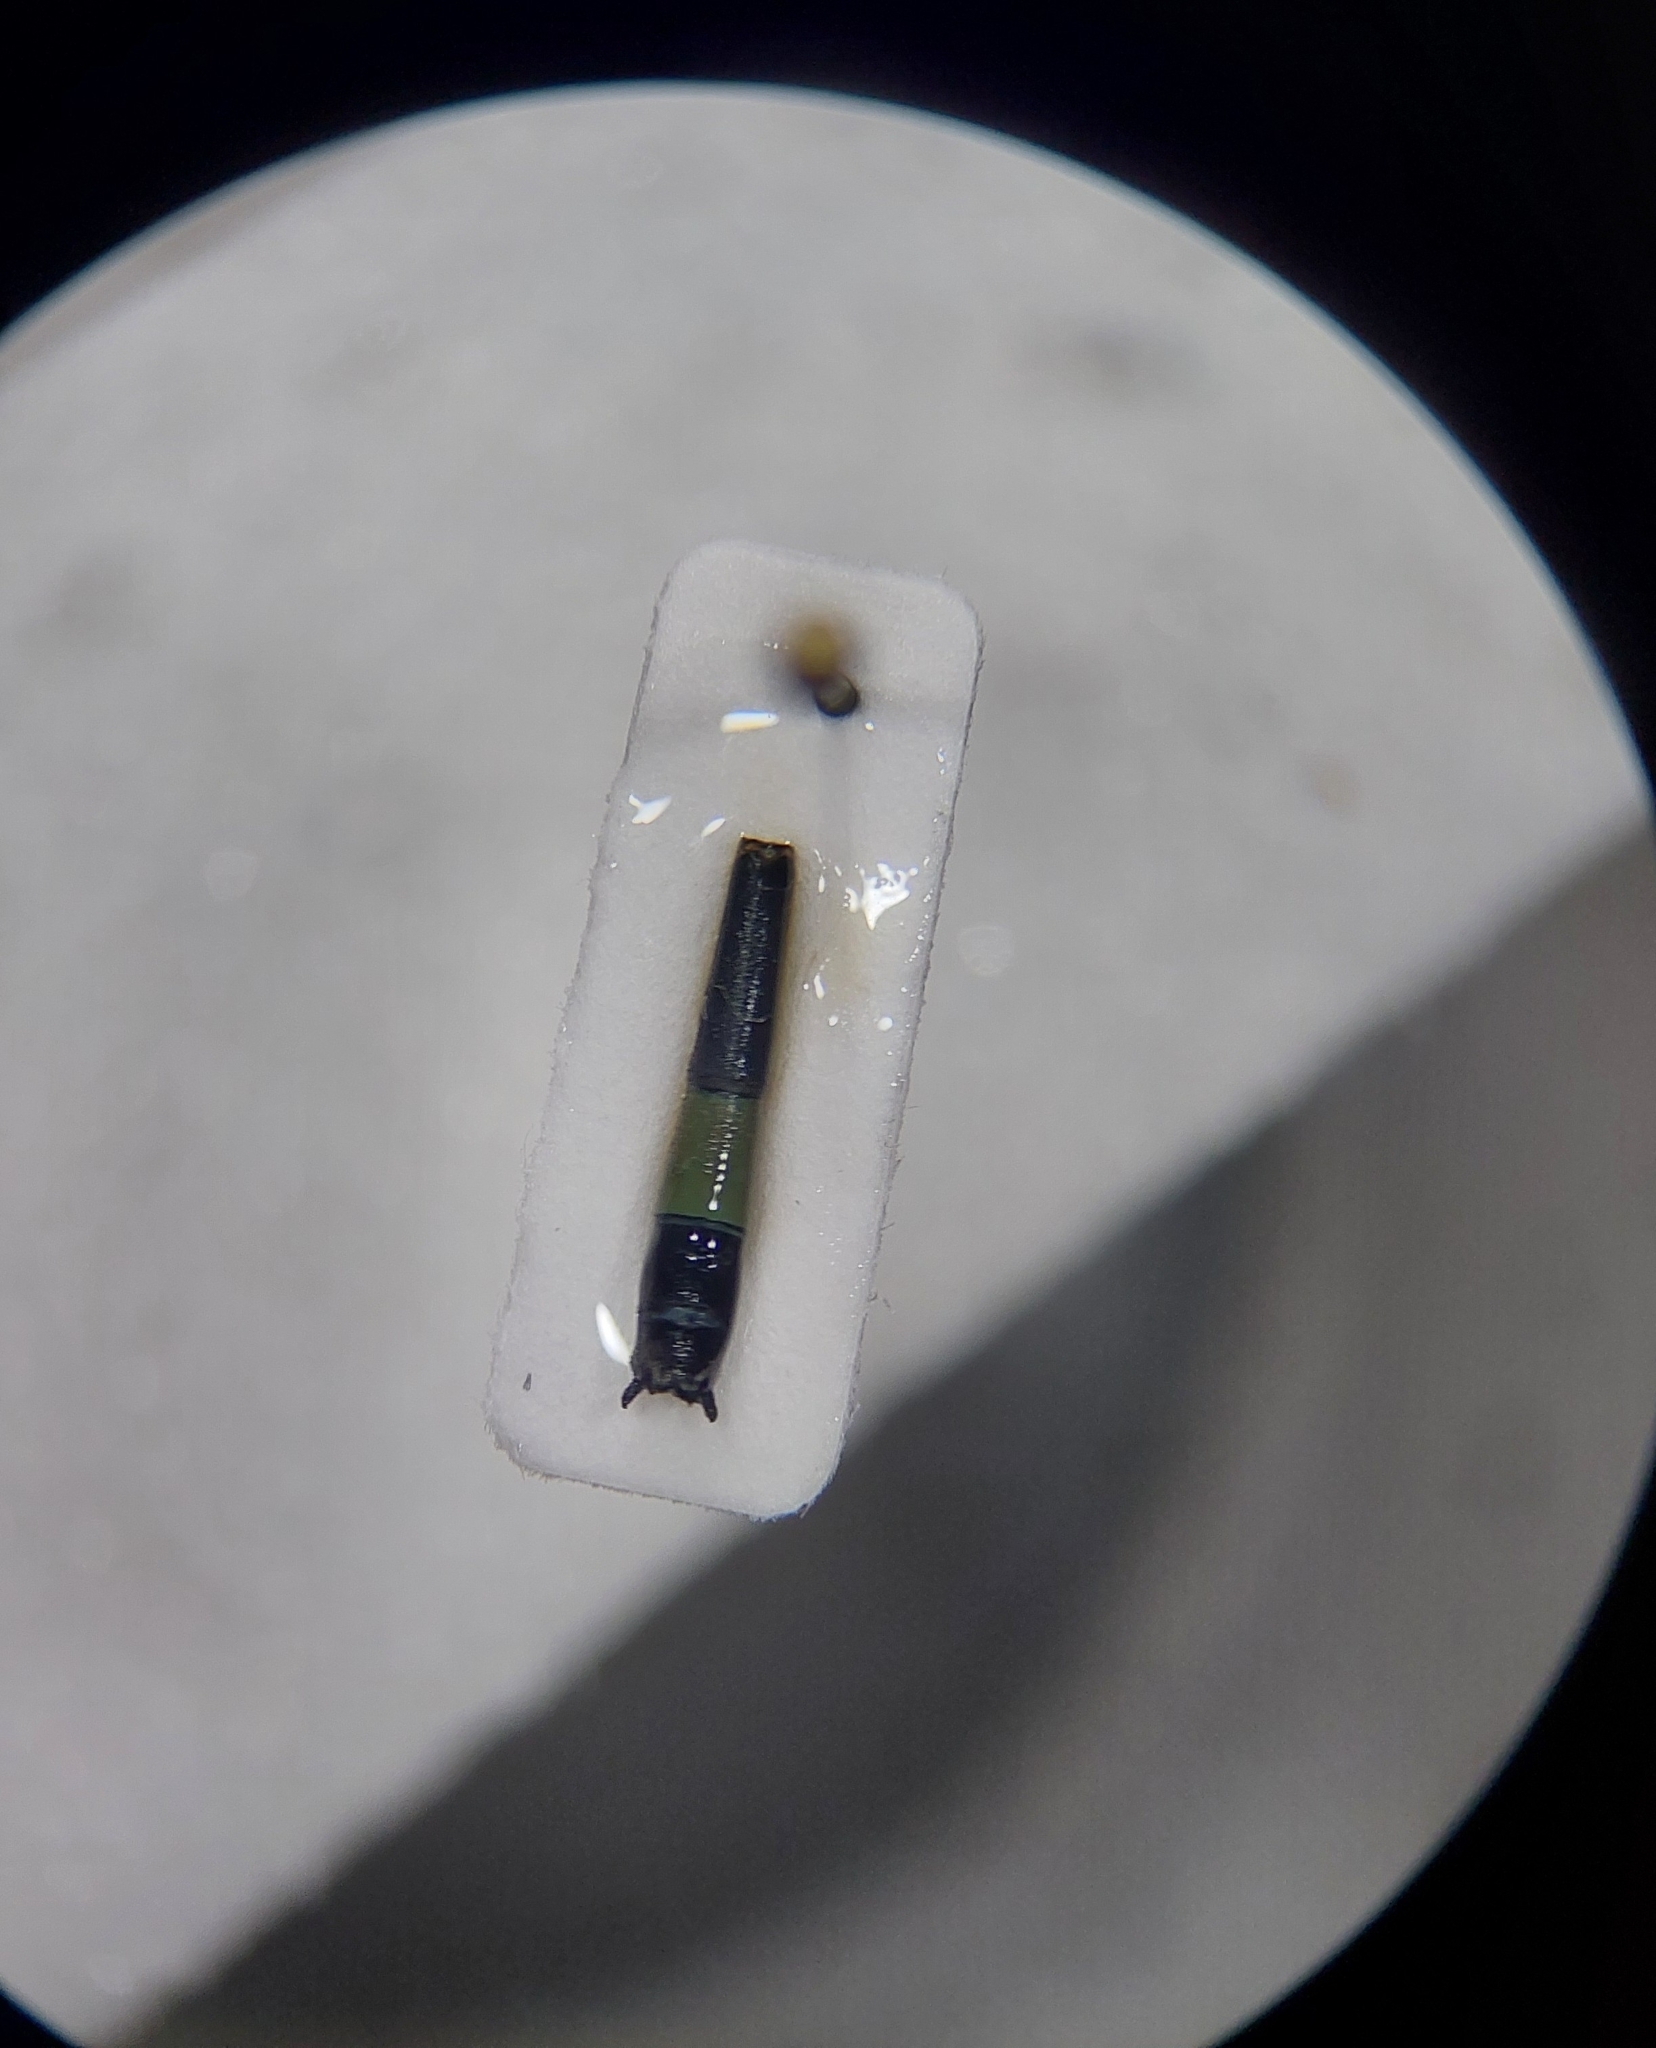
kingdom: Animalia
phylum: Arthropoda
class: Insecta
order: Odonata
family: Coenagrionidae
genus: Ischnura
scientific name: Ischnura elegans
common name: Blue-tailed damselfly
